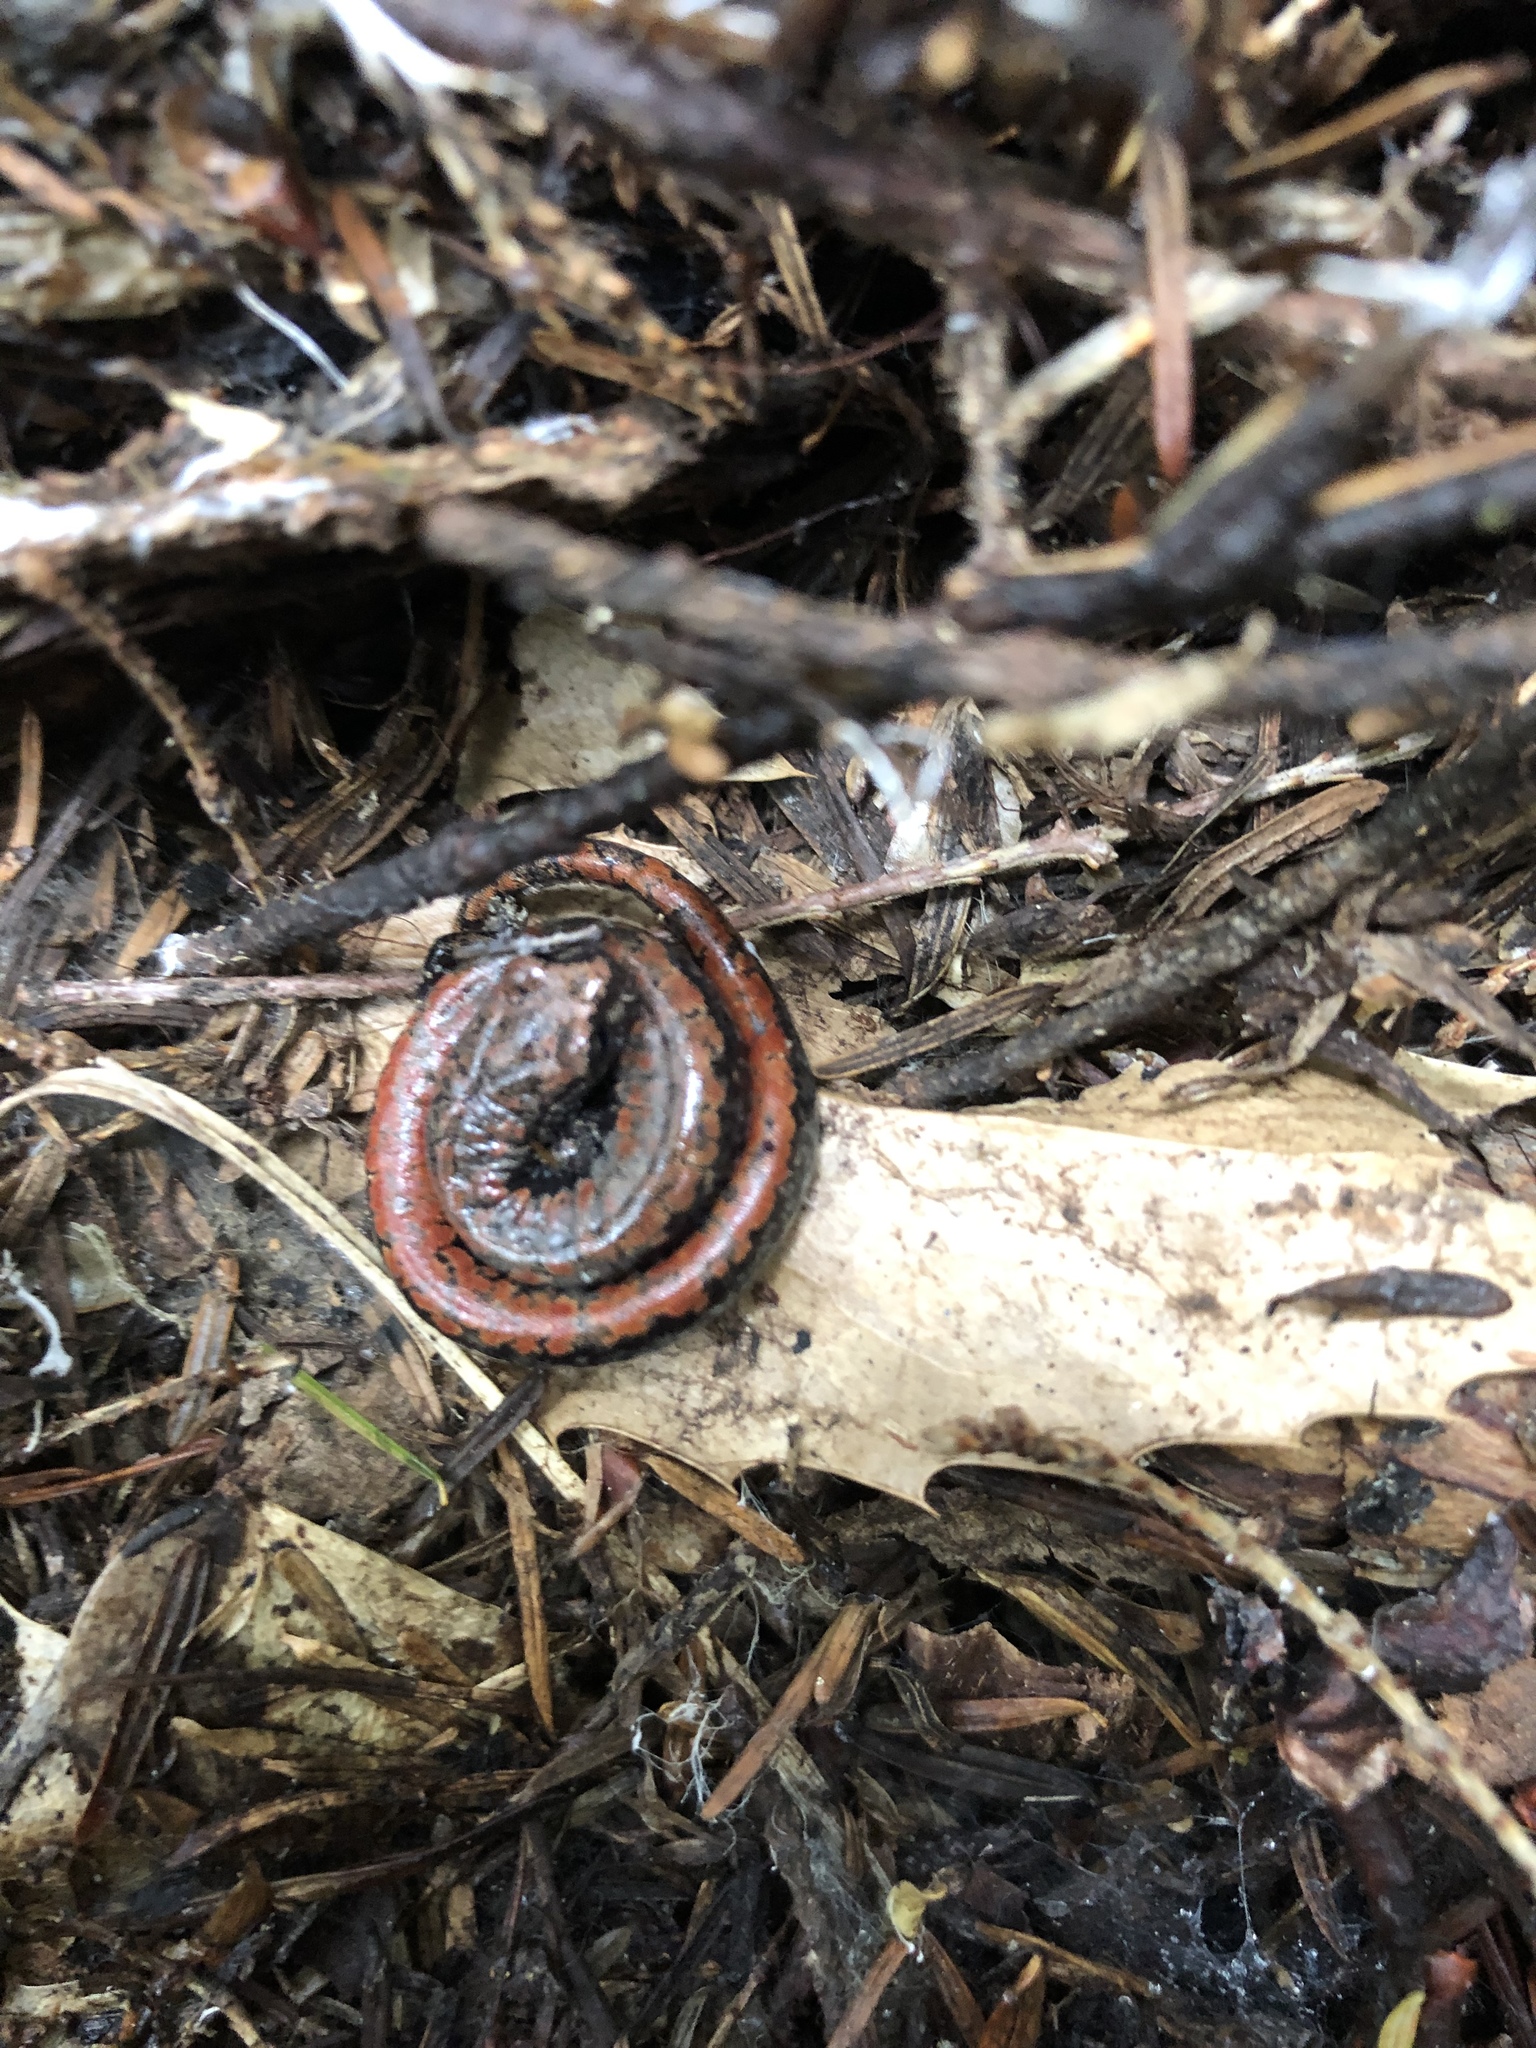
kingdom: Animalia
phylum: Chordata
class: Amphibia
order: Caudata
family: Plethodontidae
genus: Batrachoseps
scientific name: Batrachoseps wrighti
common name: Oregon slender salamander
